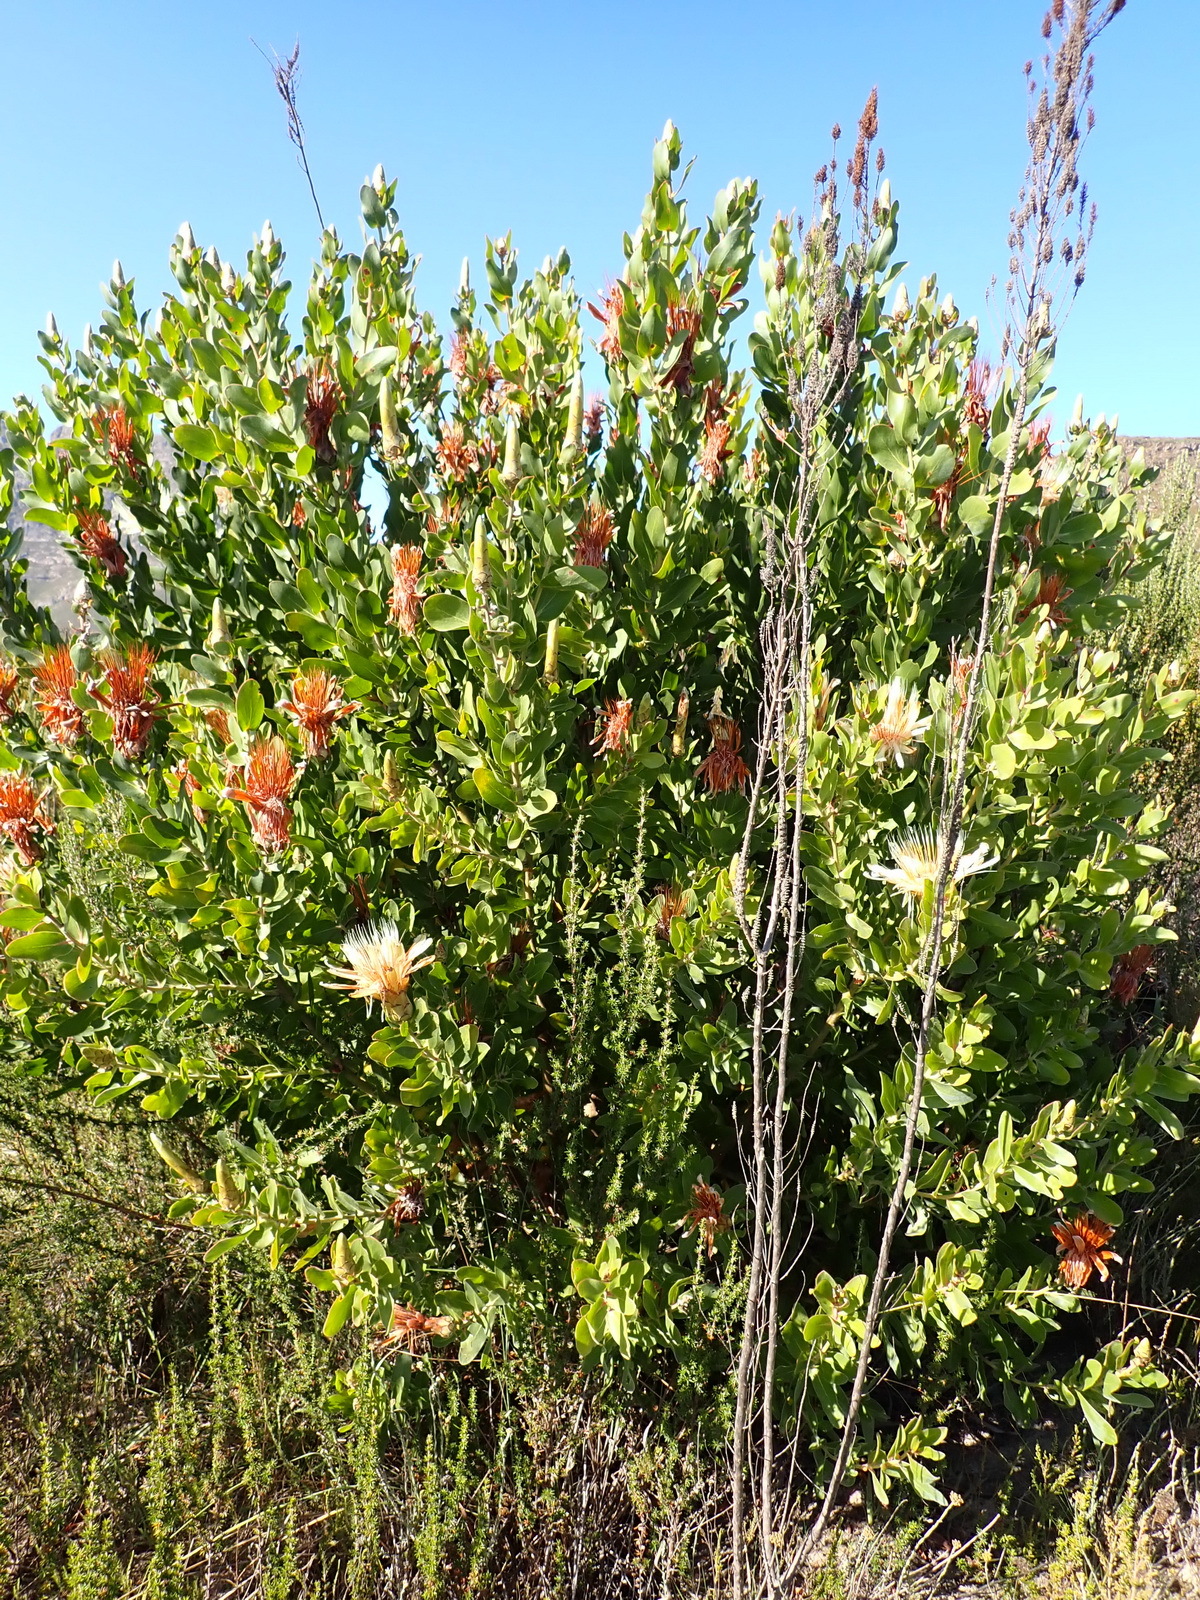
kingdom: Plantae
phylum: Tracheophyta
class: Magnoliopsida
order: Proteales
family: Proteaceae
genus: Protea
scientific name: Protea aurea
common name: Shuttlecock sugarbush
